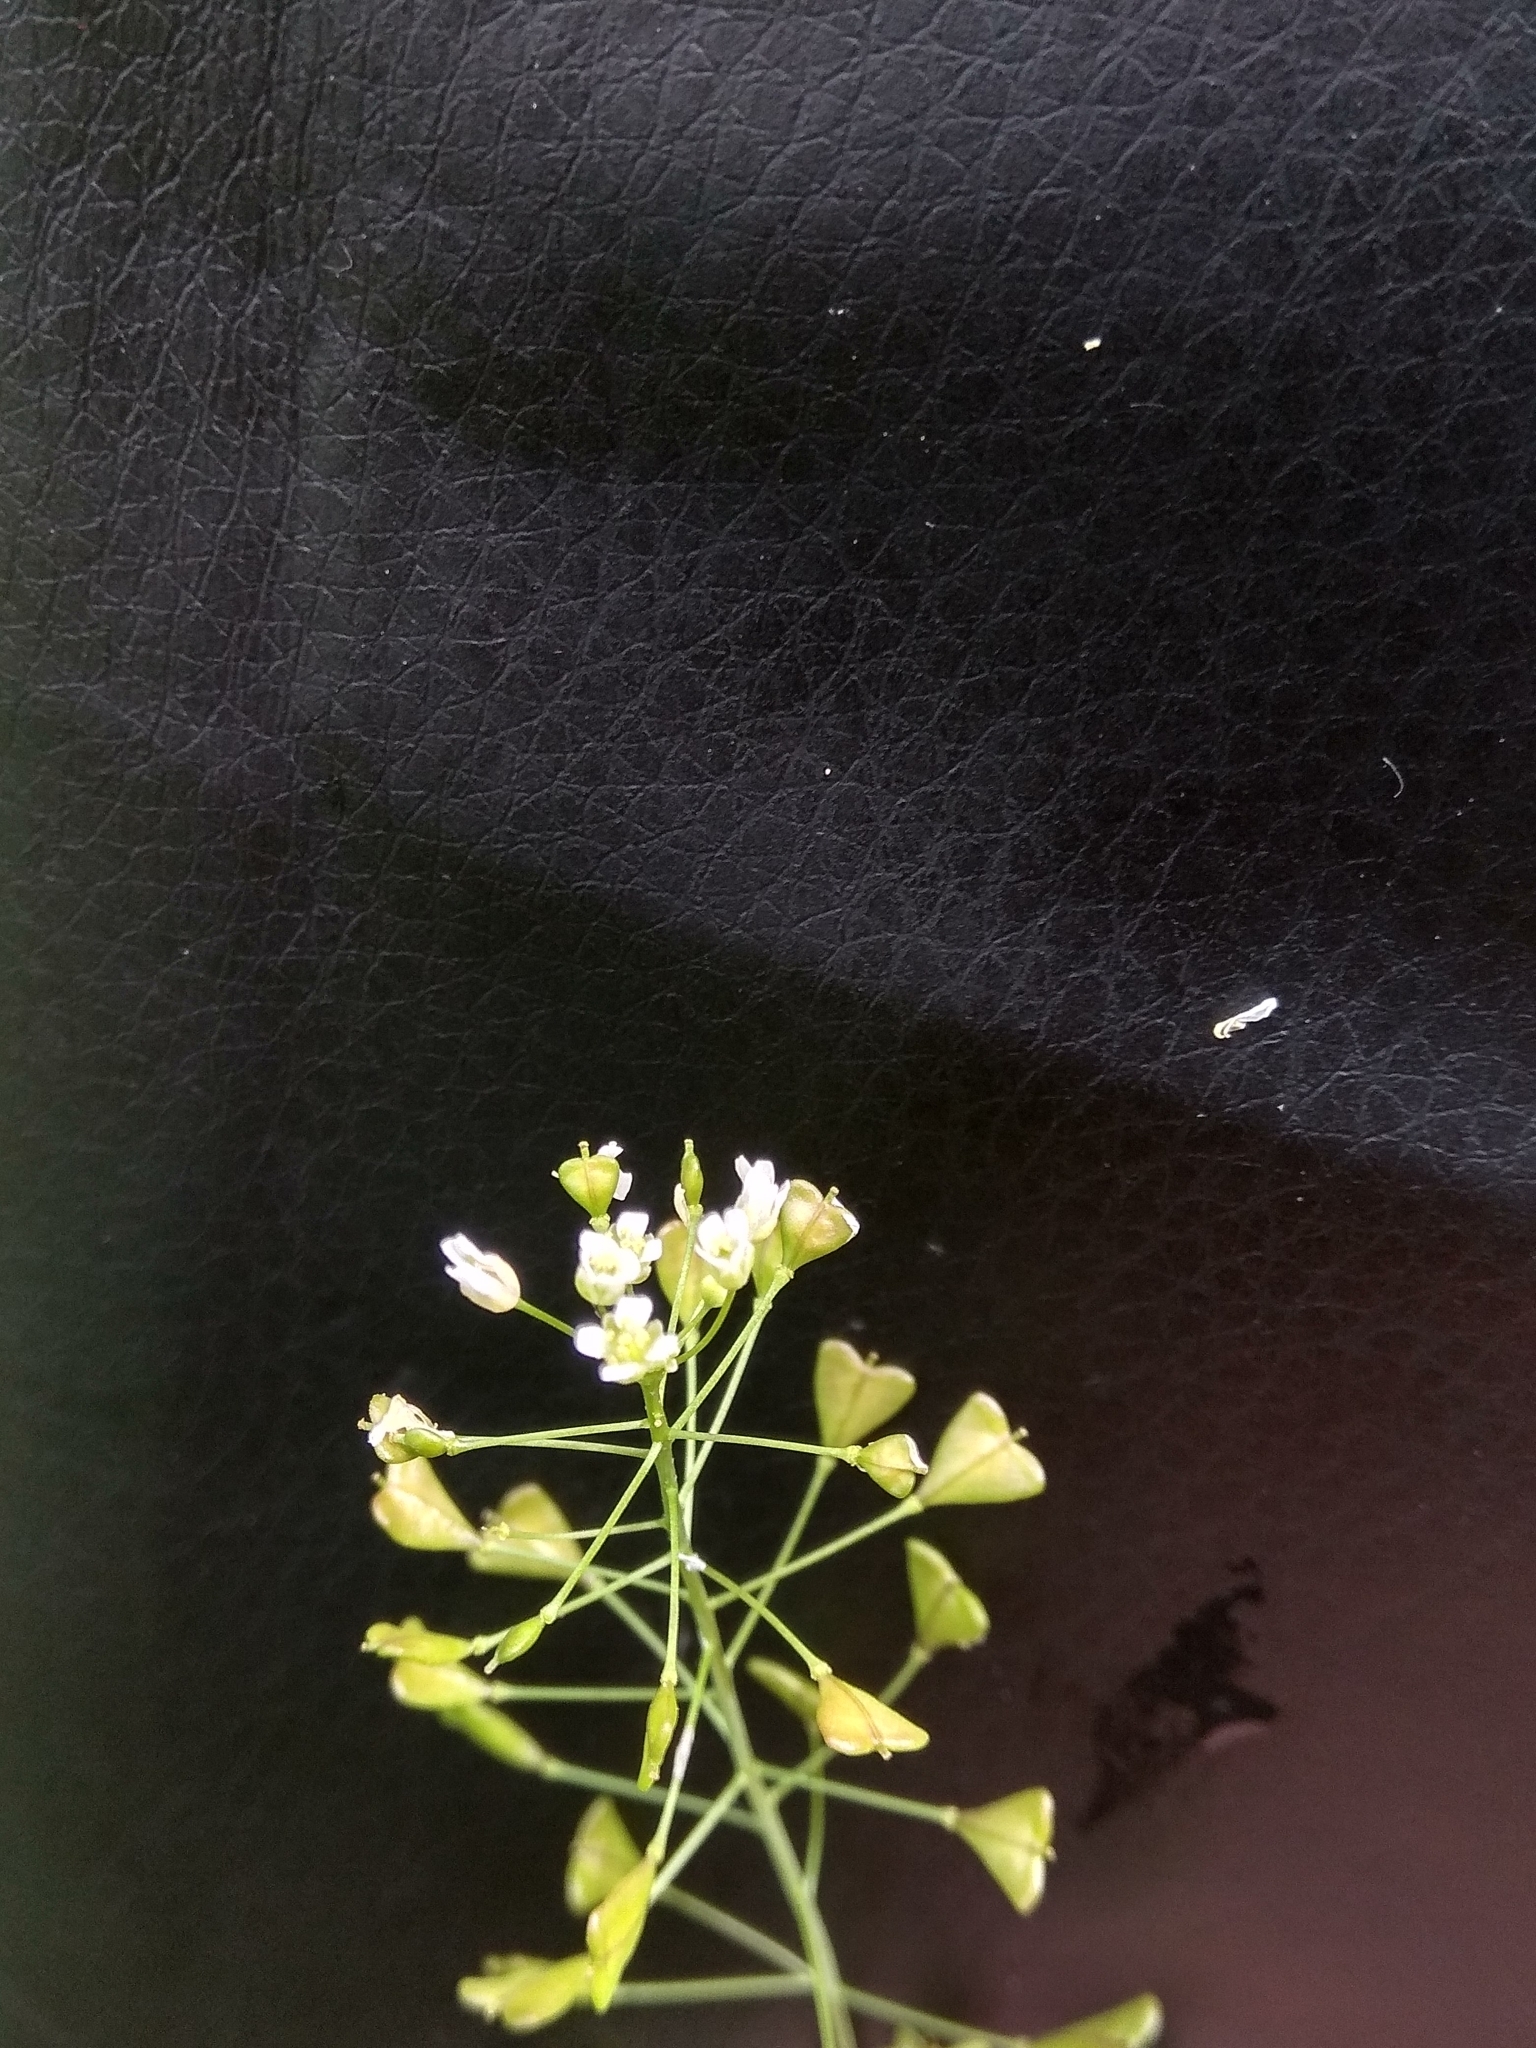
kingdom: Plantae
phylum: Tracheophyta
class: Magnoliopsida
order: Brassicales
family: Brassicaceae
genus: Capsella
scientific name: Capsella bursa-pastoris
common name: Shepherd's purse
